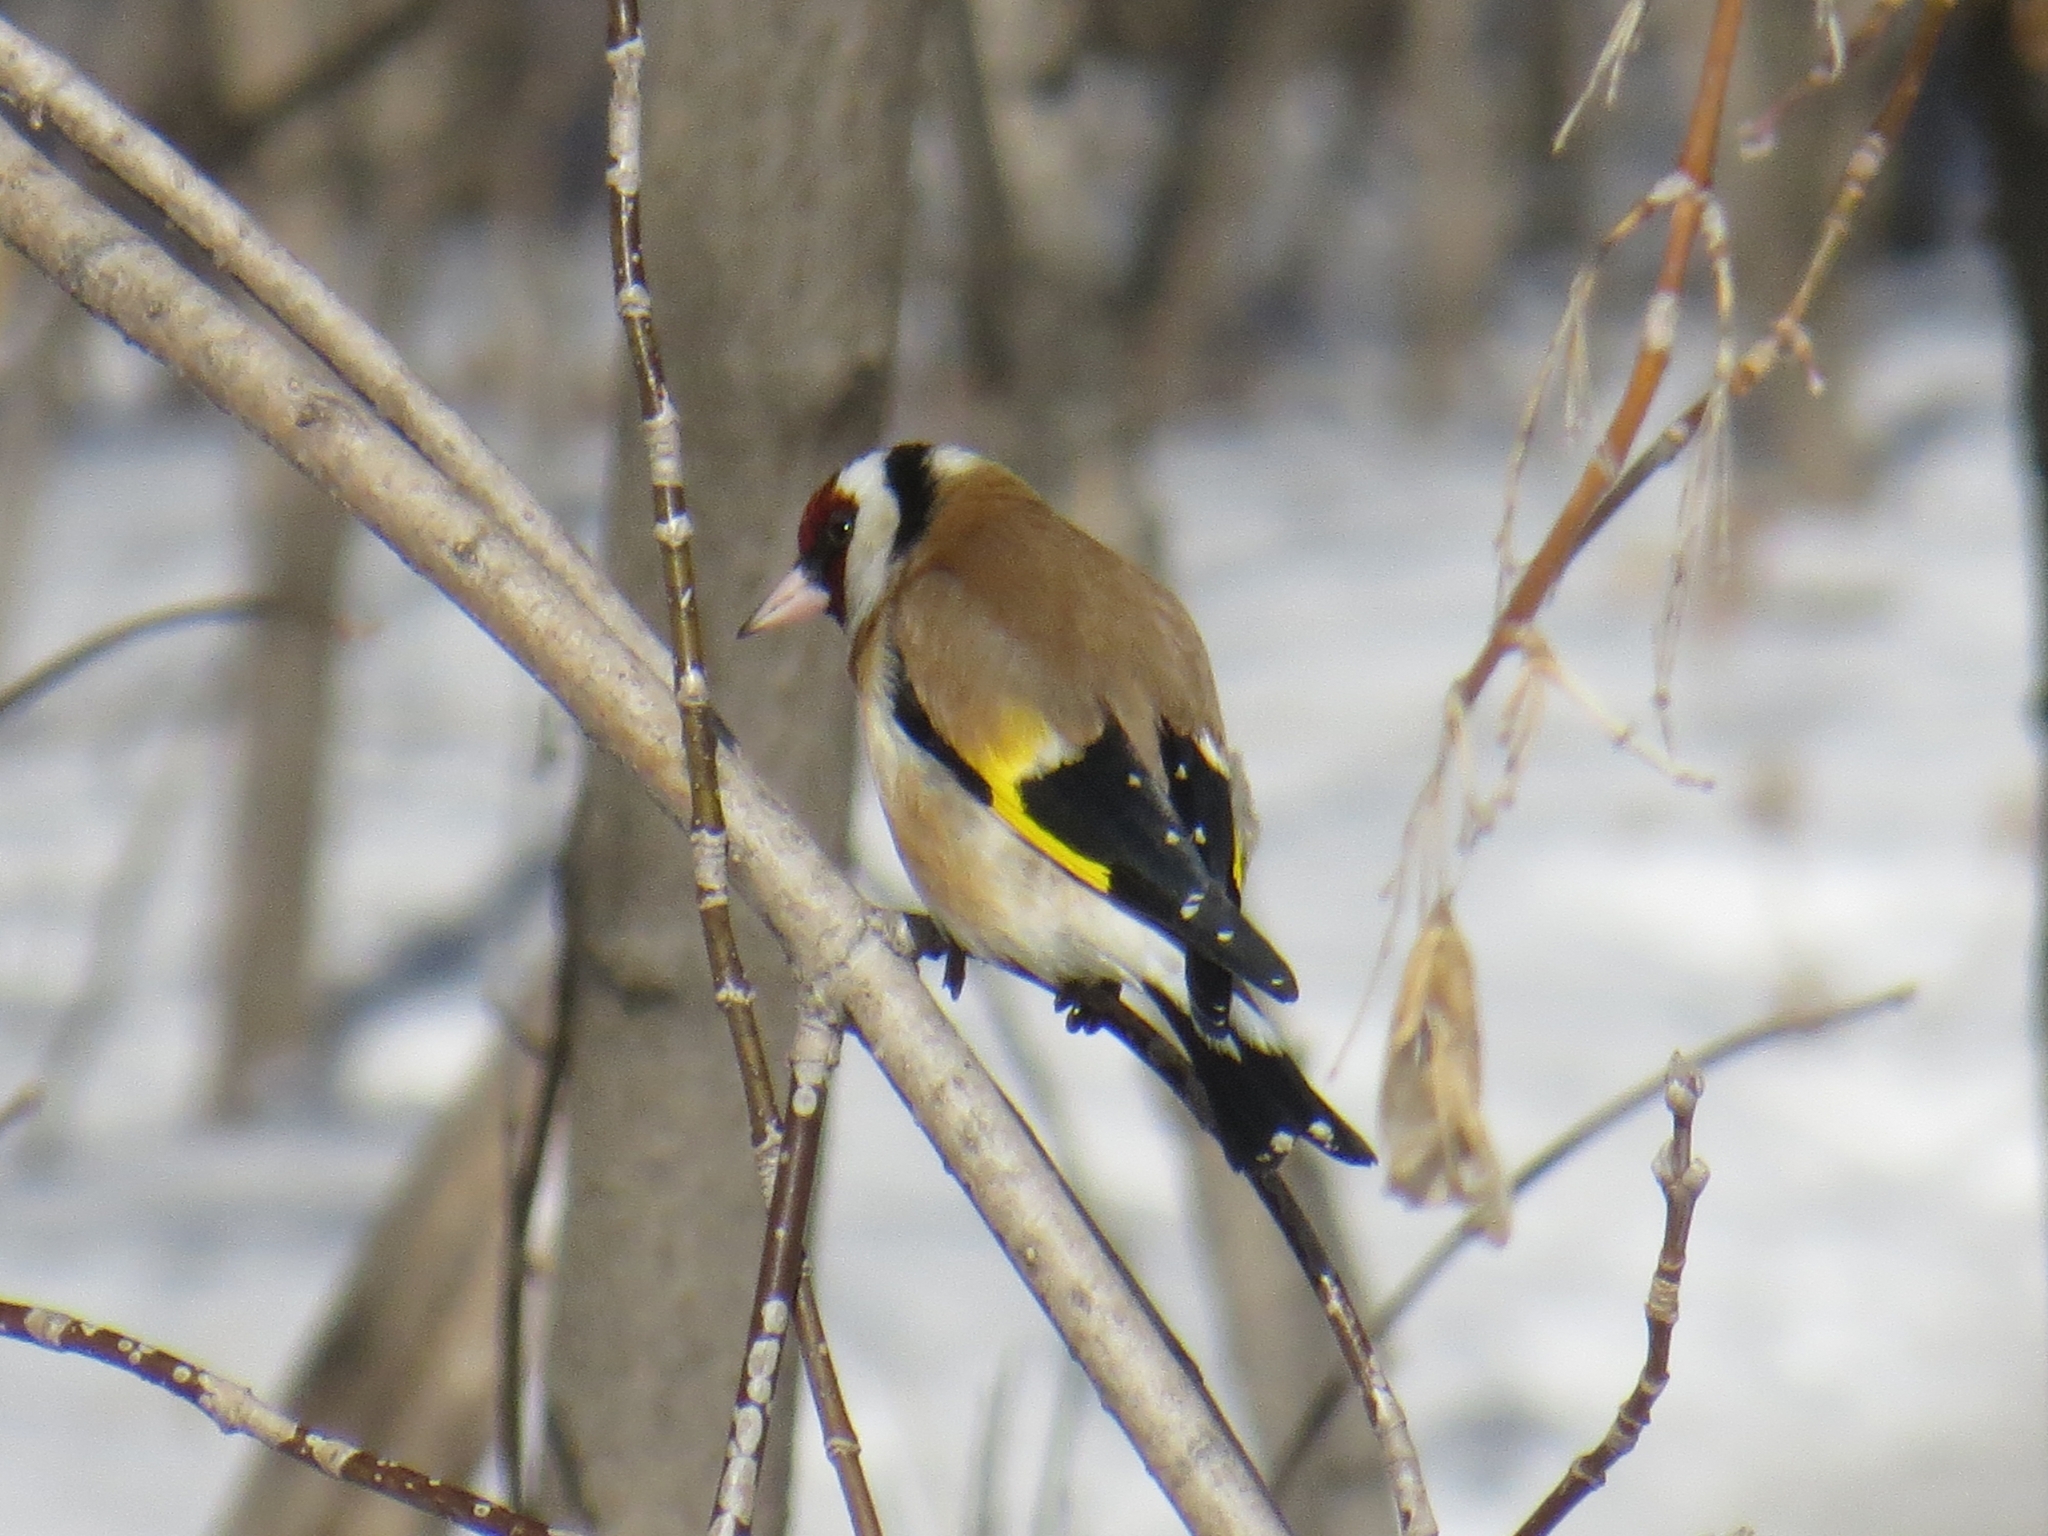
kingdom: Animalia
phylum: Chordata
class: Aves
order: Passeriformes
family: Fringillidae
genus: Carduelis
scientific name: Carduelis carduelis
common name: European goldfinch
